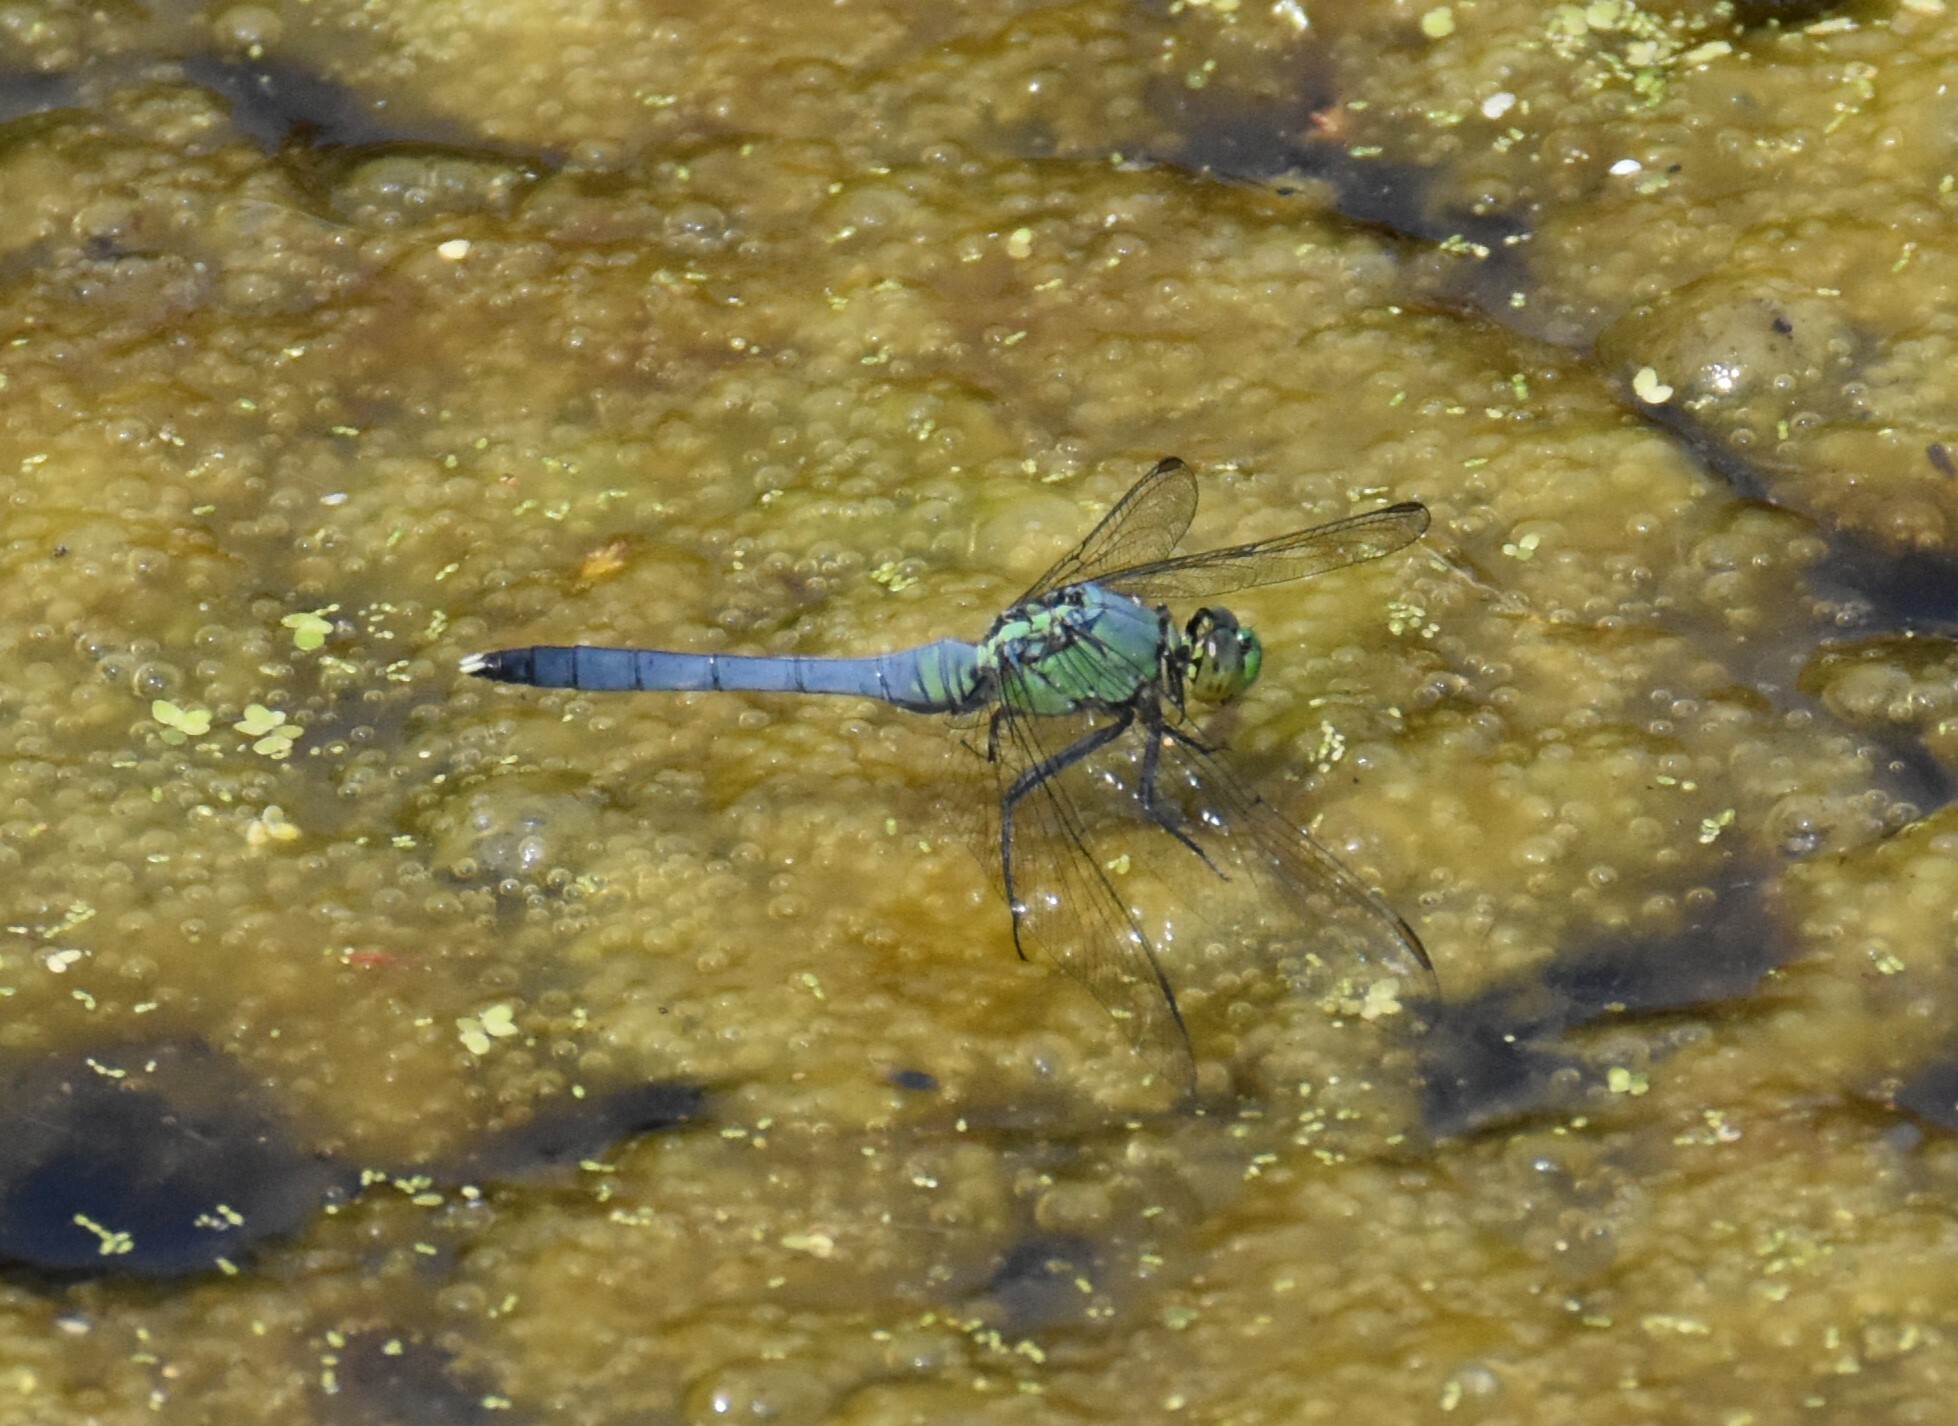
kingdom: Animalia
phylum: Arthropoda
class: Insecta
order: Odonata
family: Libellulidae
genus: Erythemis
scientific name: Erythemis simplicicollis
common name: Eastern pondhawk
